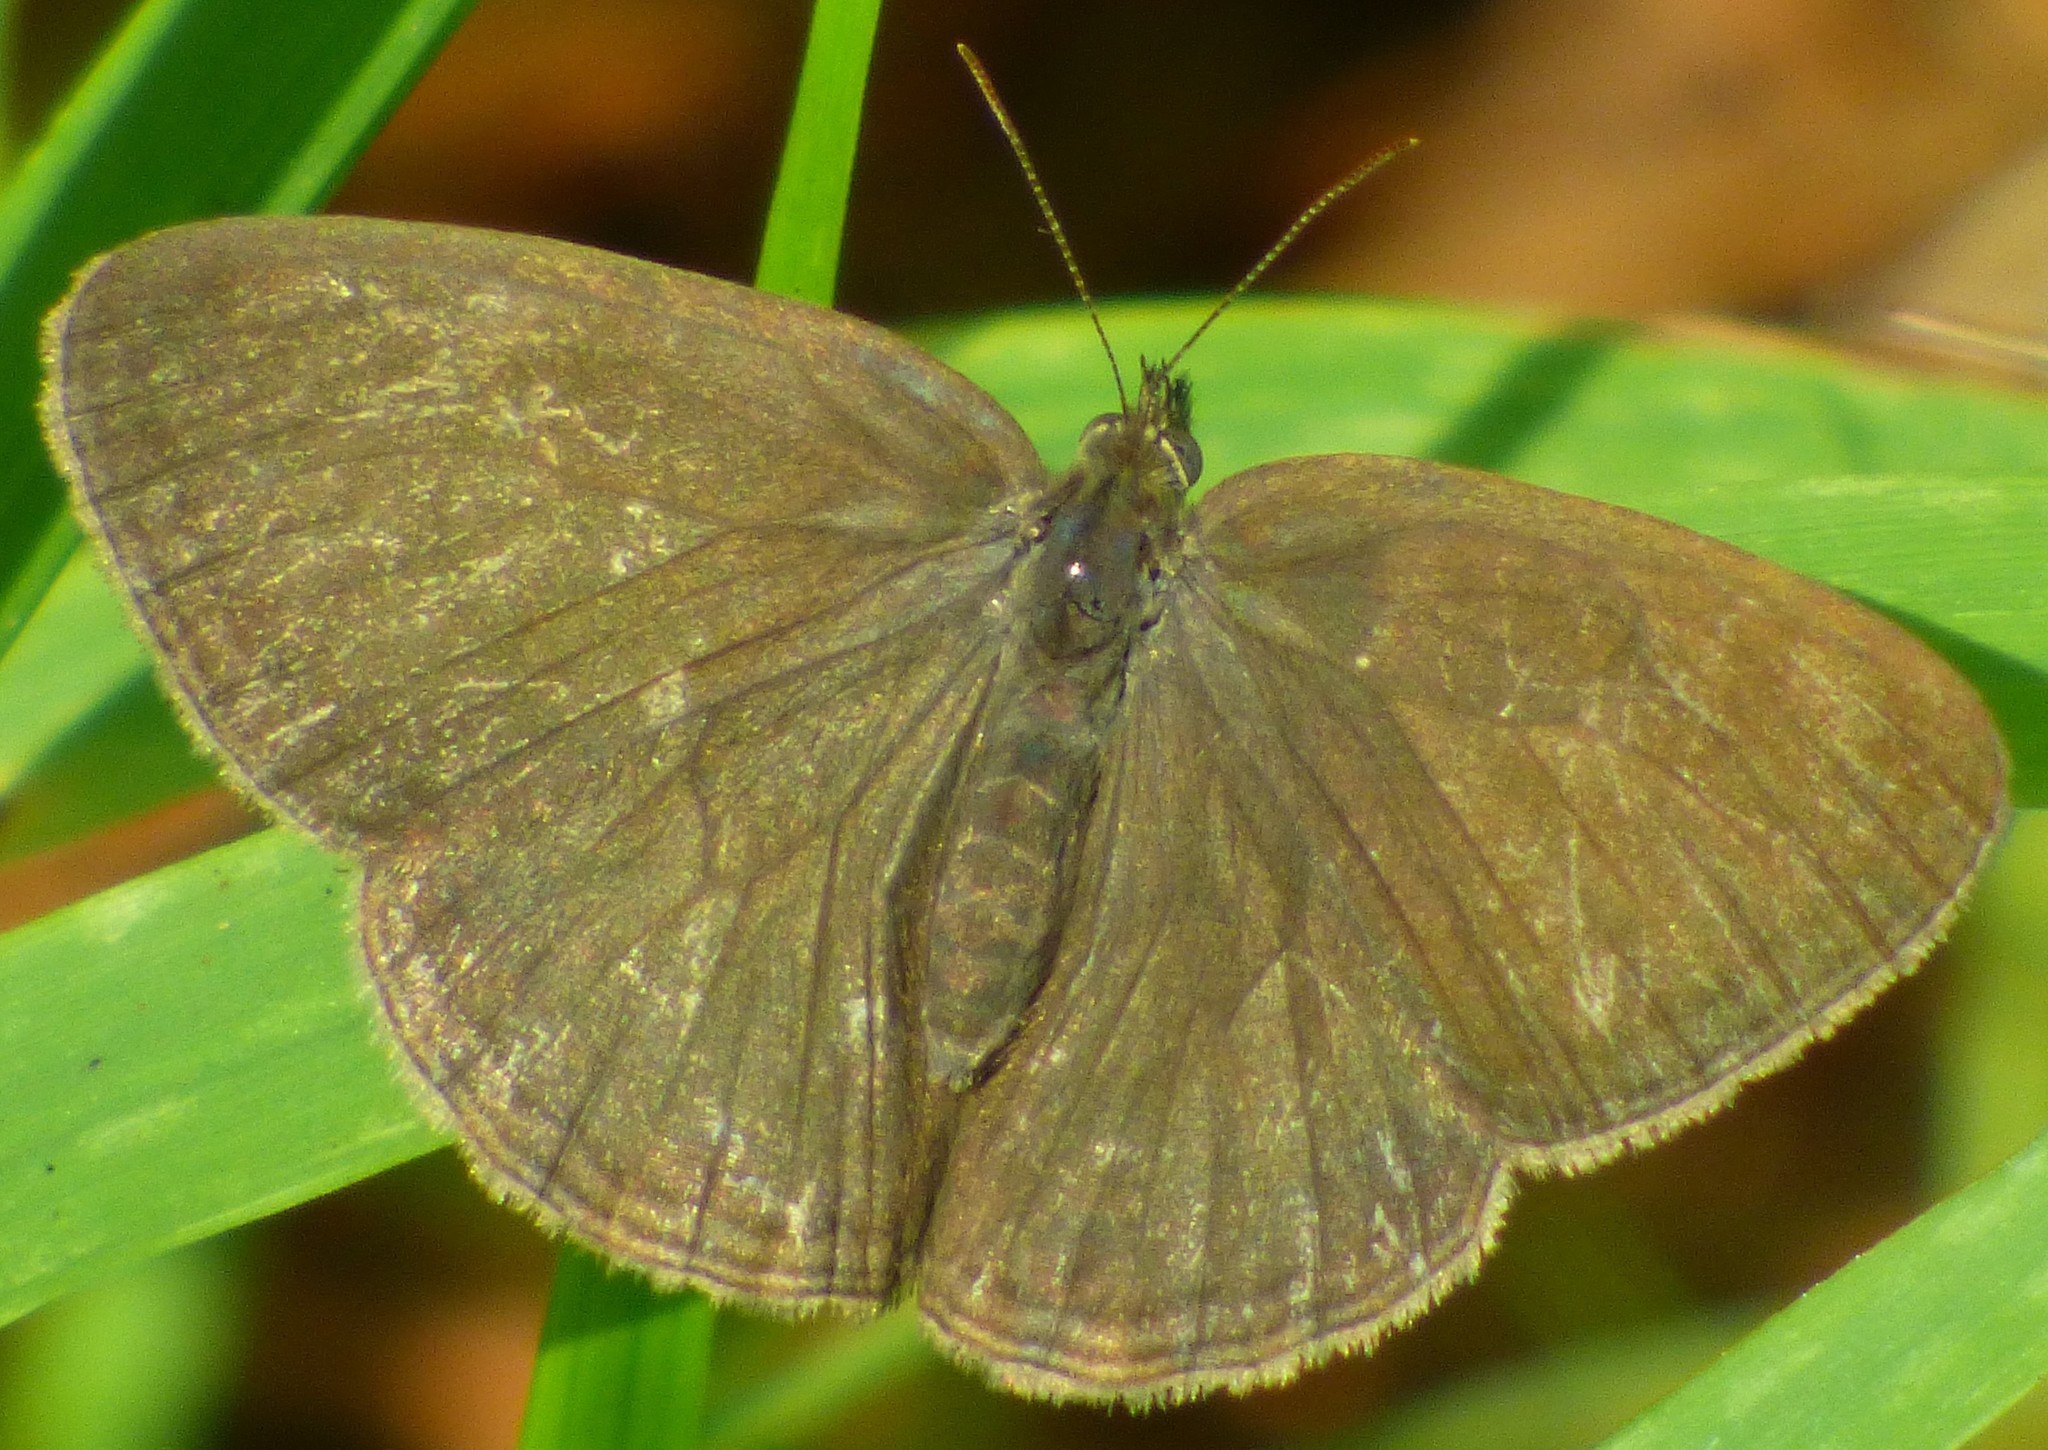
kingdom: Animalia
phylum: Arthropoda
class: Insecta
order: Lepidoptera
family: Nymphalidae
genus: Hermeuptychia
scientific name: Hermeuptychia hermes
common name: Hermes satyr
